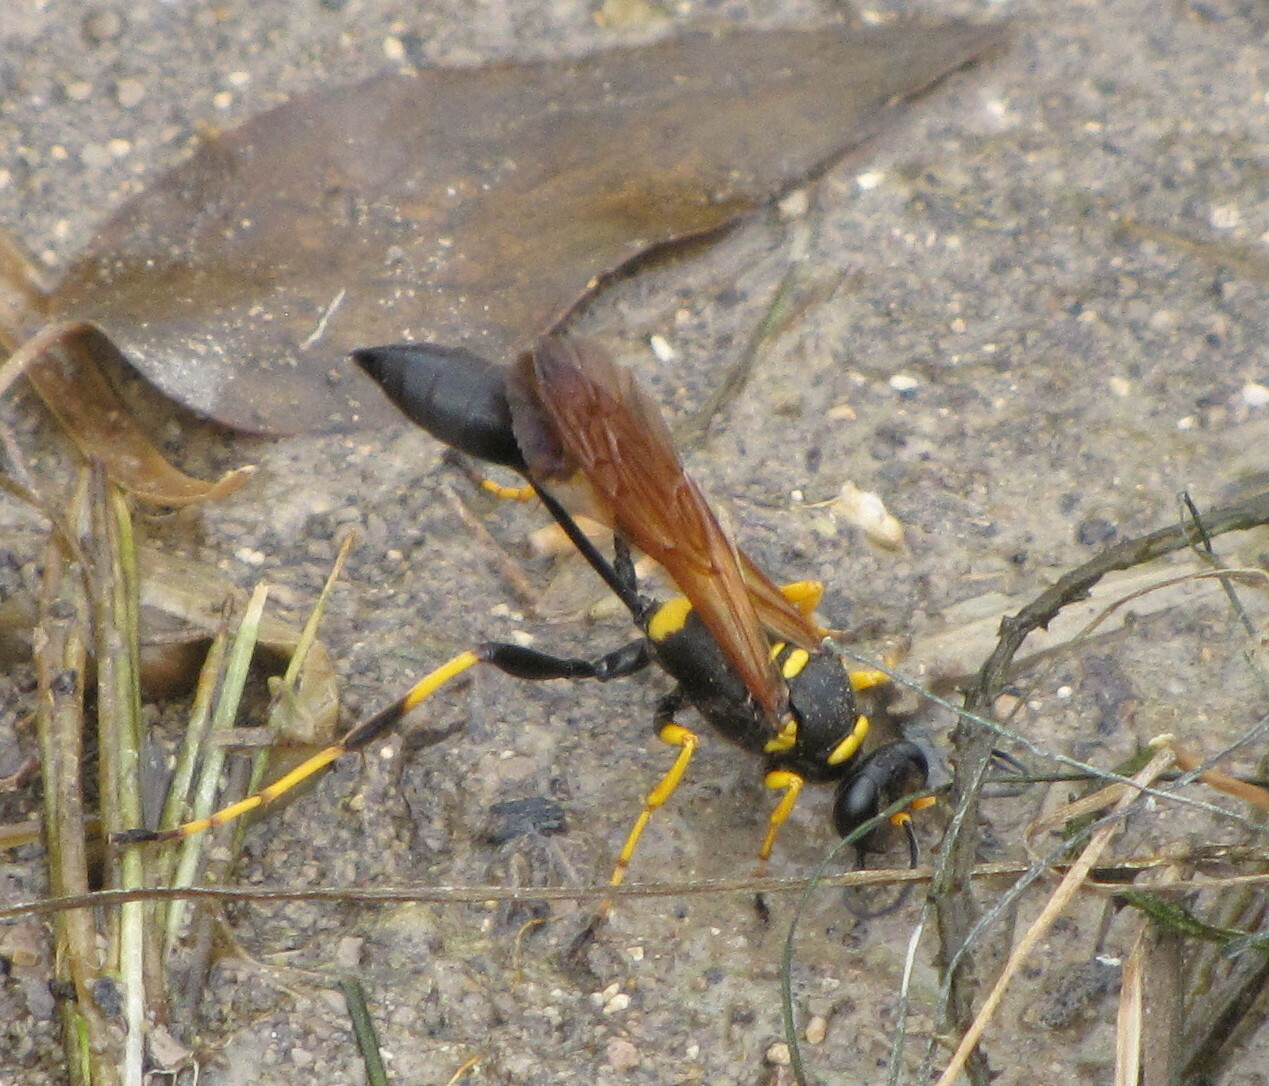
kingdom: Animalia
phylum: Arthropoda
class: Insecta
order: Hymenoptera
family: Sphecidae
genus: Sceliphron
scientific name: Sceliphron caementarium
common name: Mud dauber
